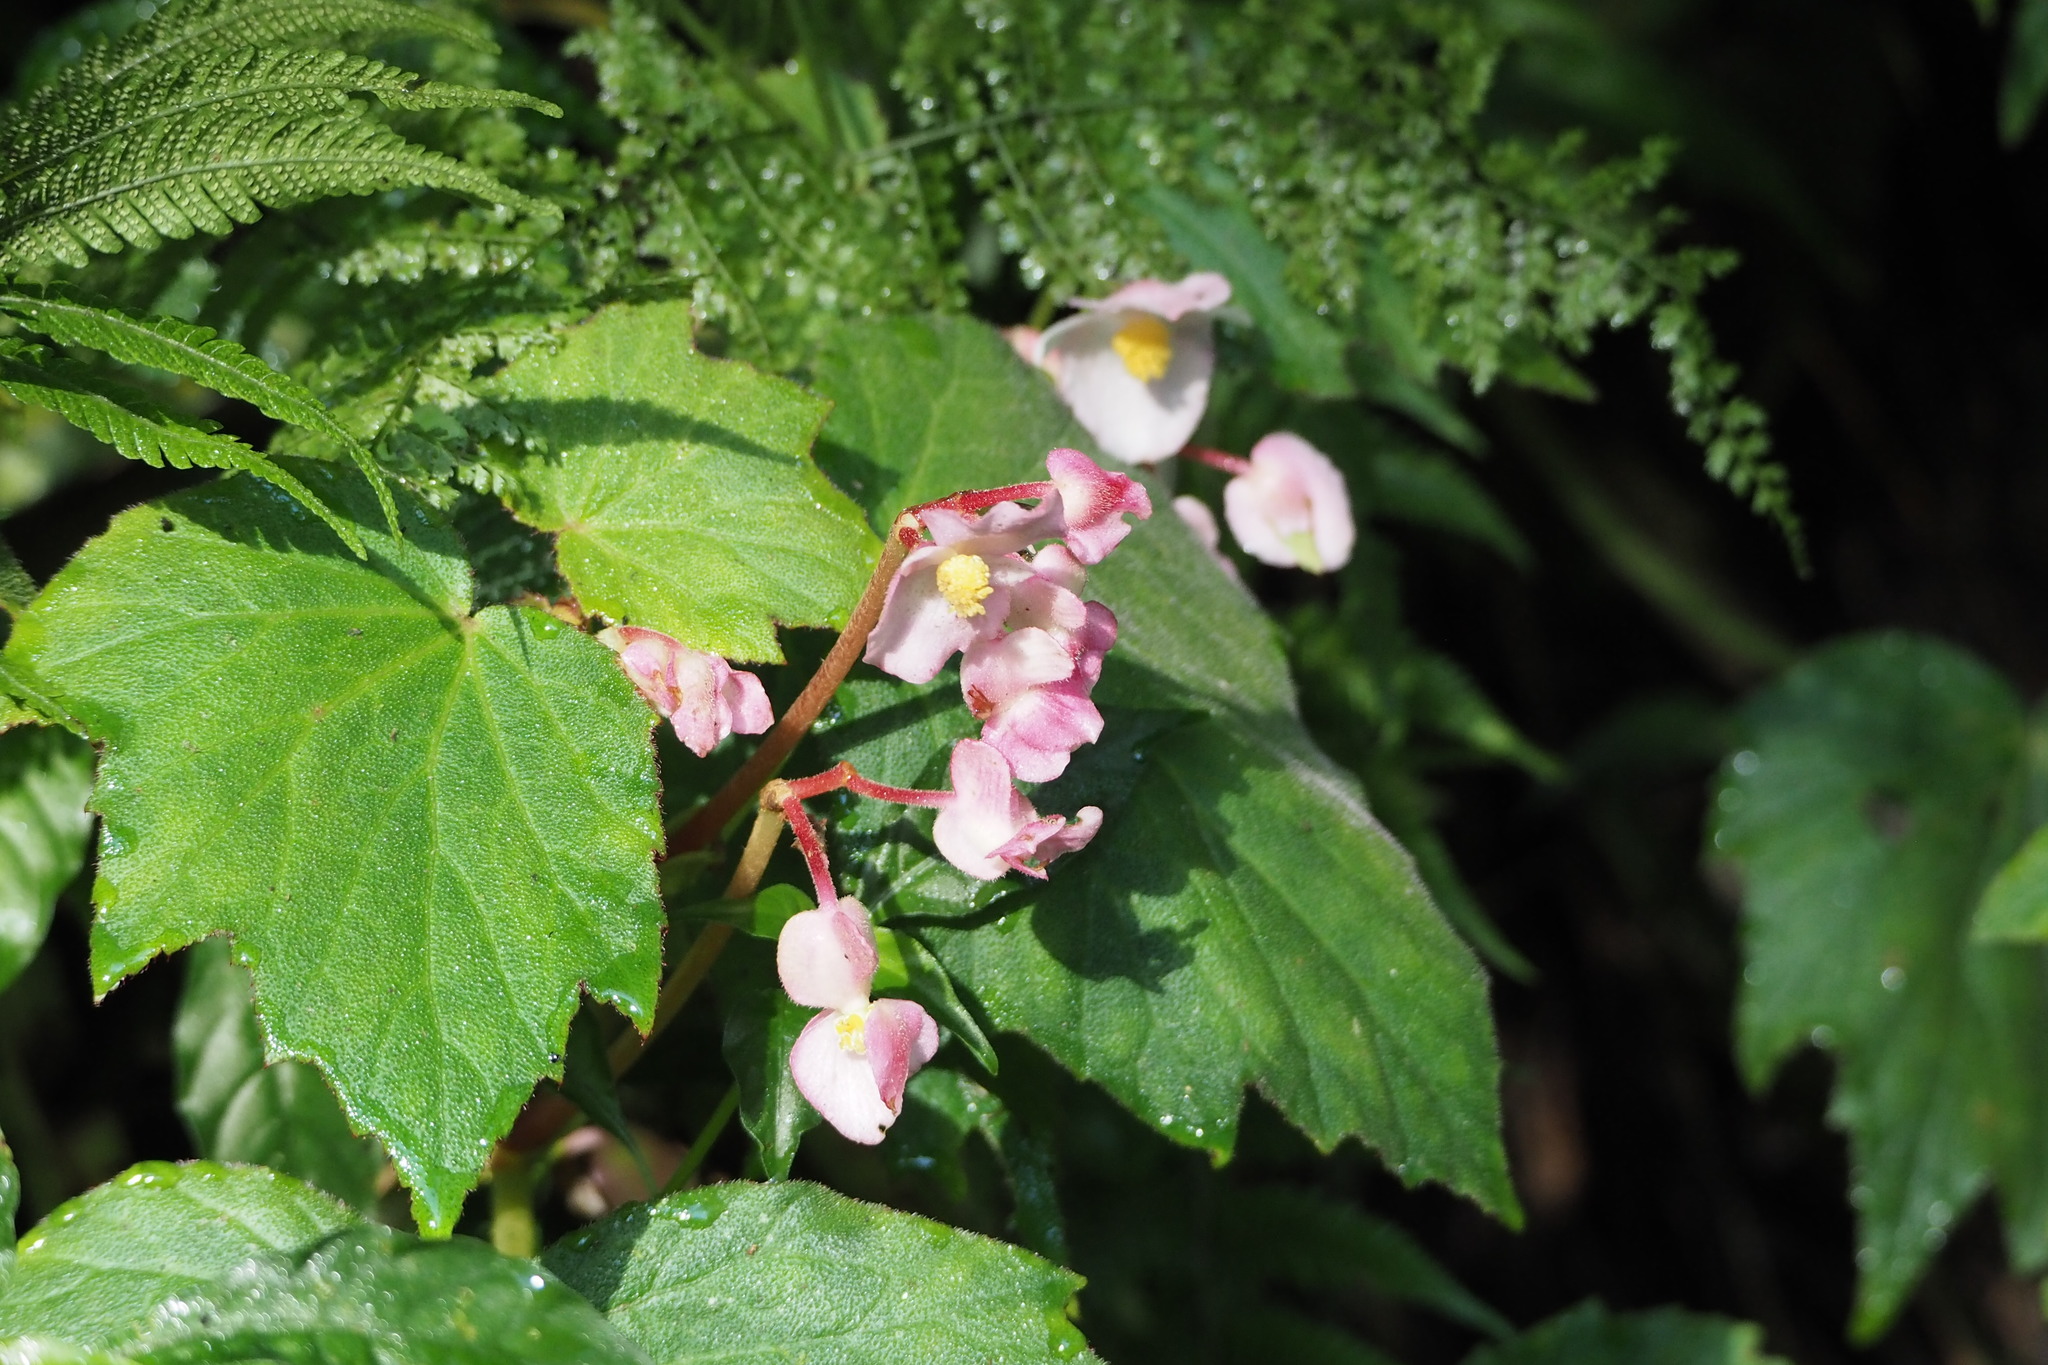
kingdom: Plantae
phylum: Tracheophyta
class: Magnoliopsida
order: Cucurbitales
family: Begoniaceae
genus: Begonia
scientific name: Begonia palmata
